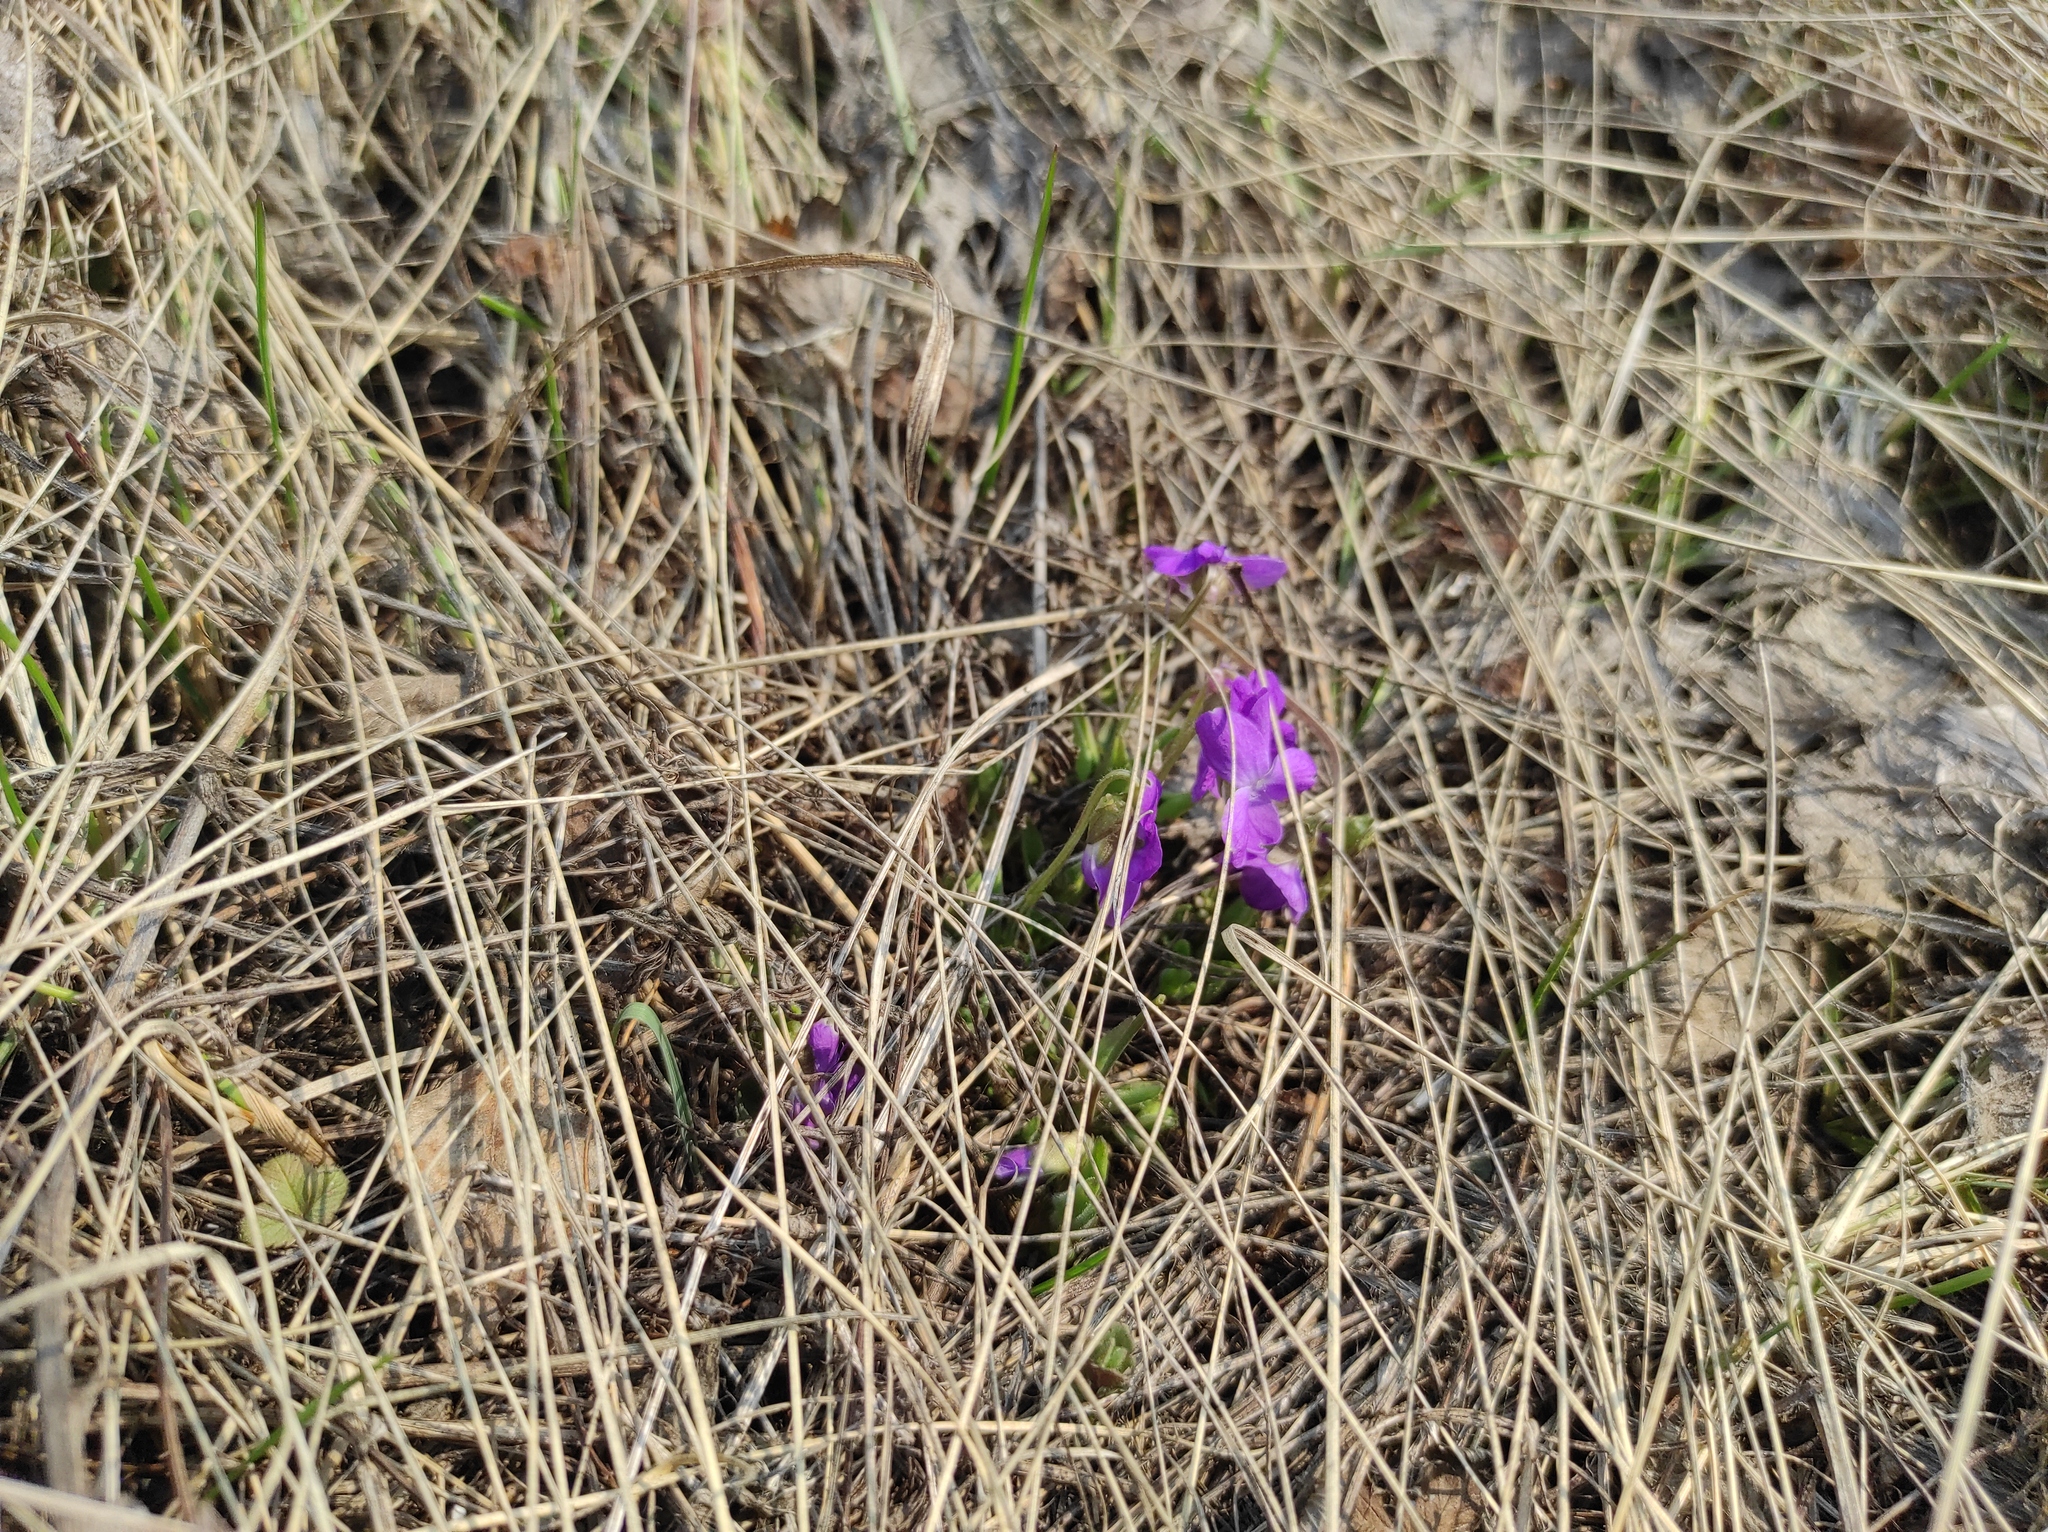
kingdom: Plantae
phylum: Tracheophyta
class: Magnoliopsida
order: Malpighiales
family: Violaceae
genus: Viola
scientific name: Viola hirta
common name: Hairy violet
